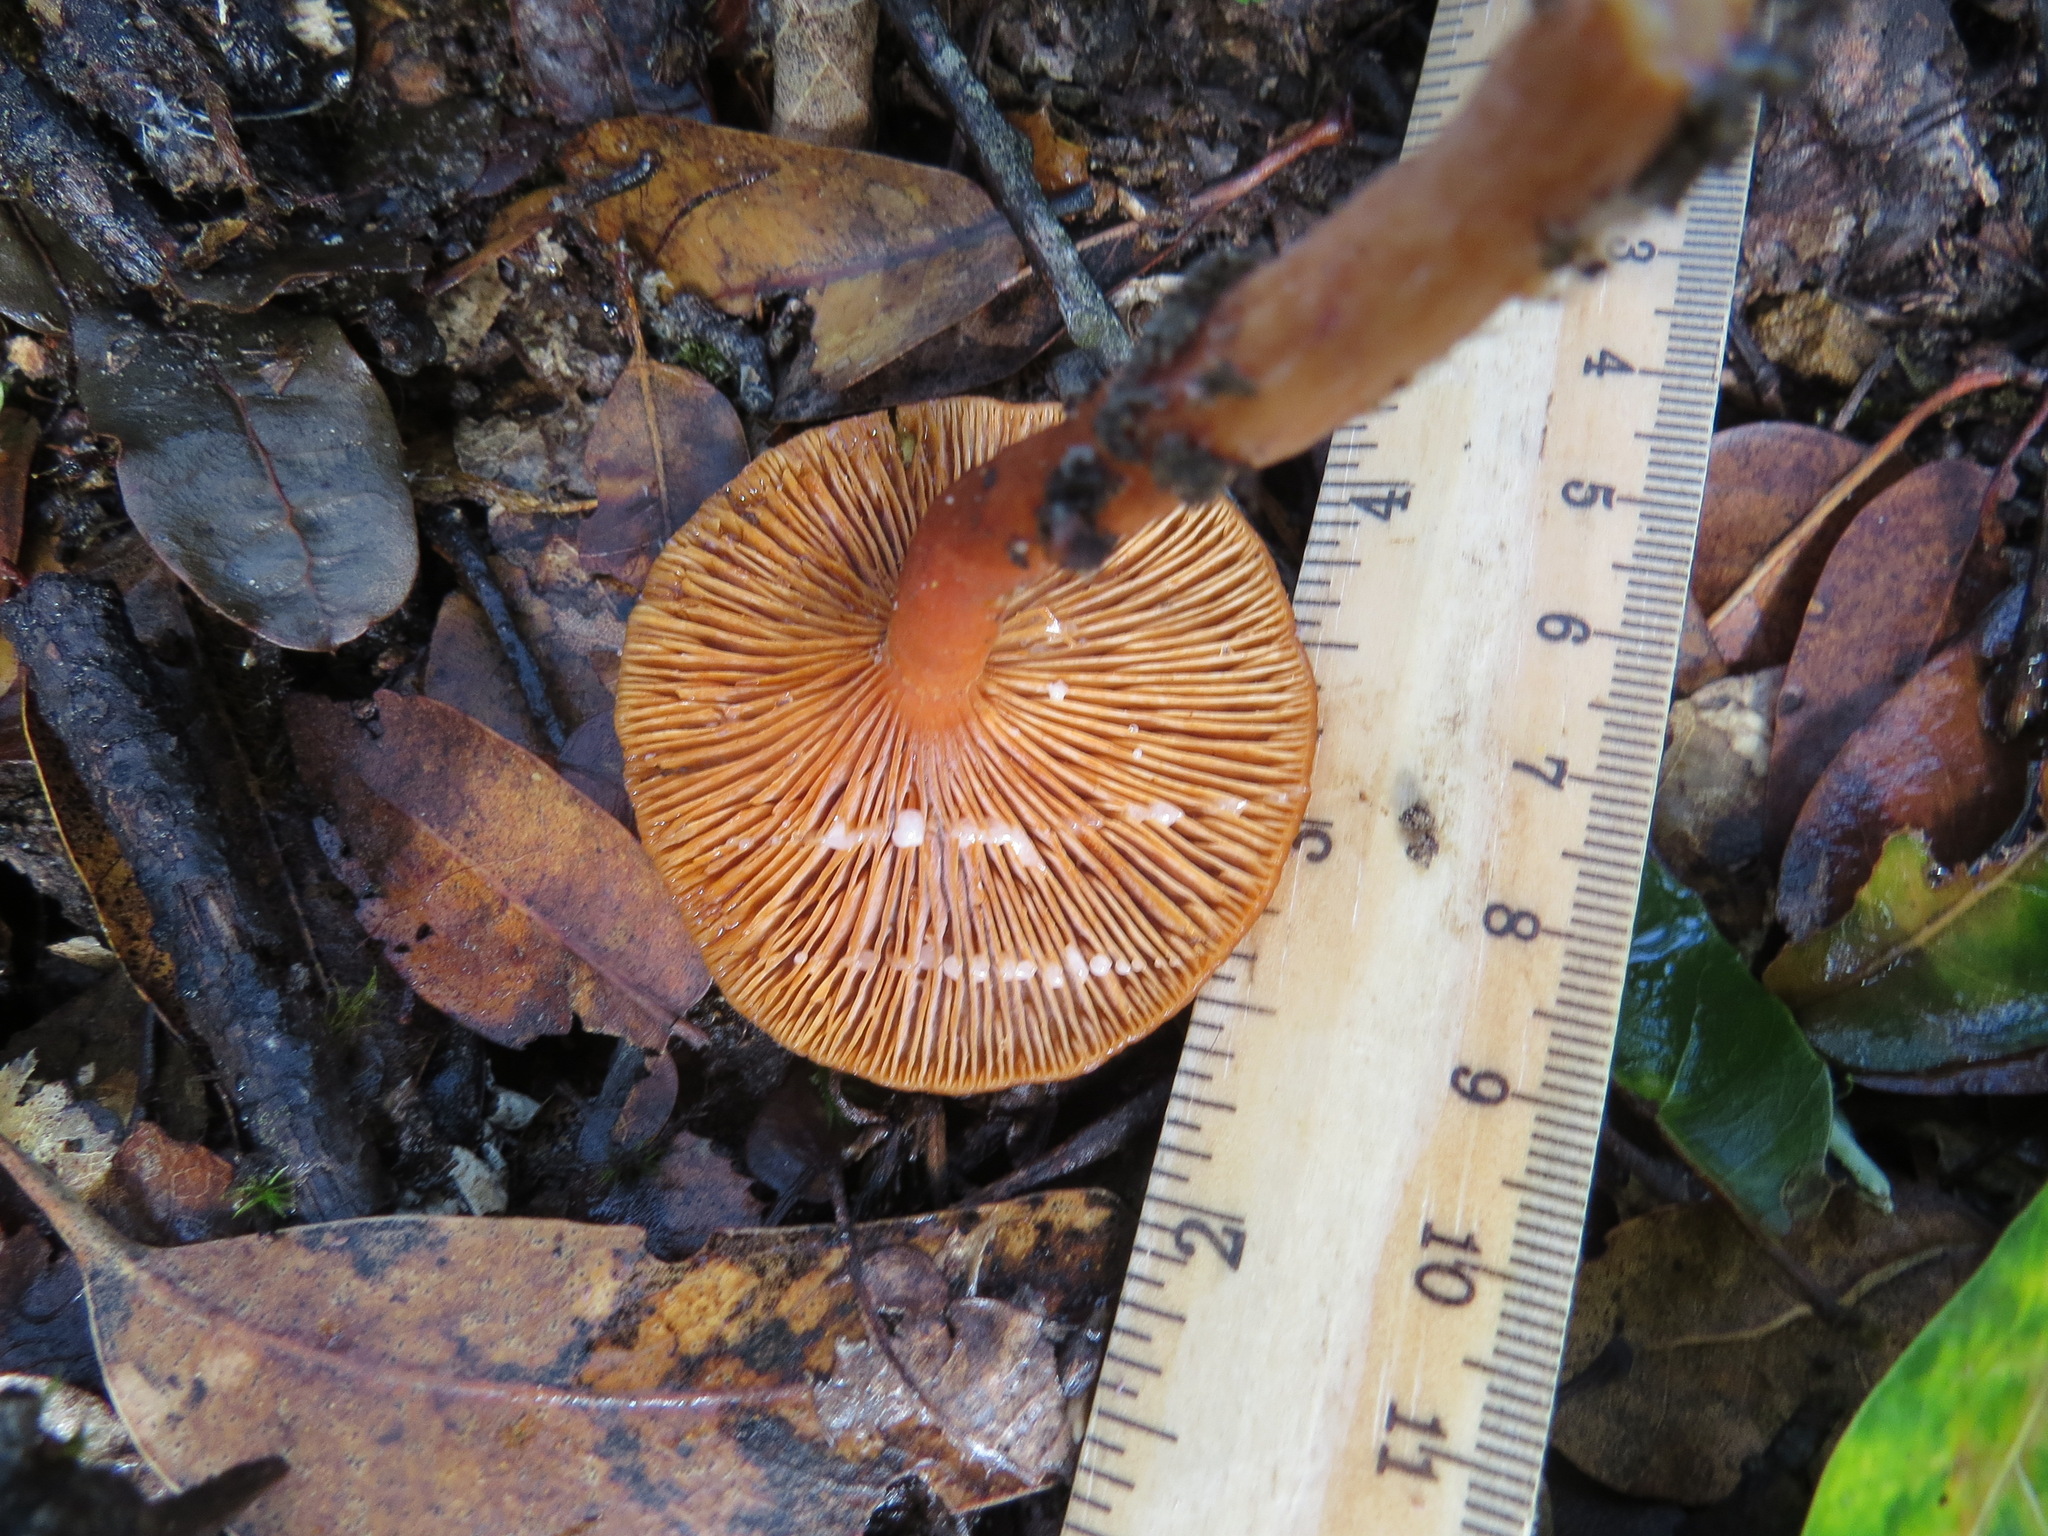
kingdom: Fungi
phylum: Basidiomycota
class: Agaricomycetes
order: Russulales
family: Russulaceae
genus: Lactarius
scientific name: Lactarius rubidus
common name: Candy cap
